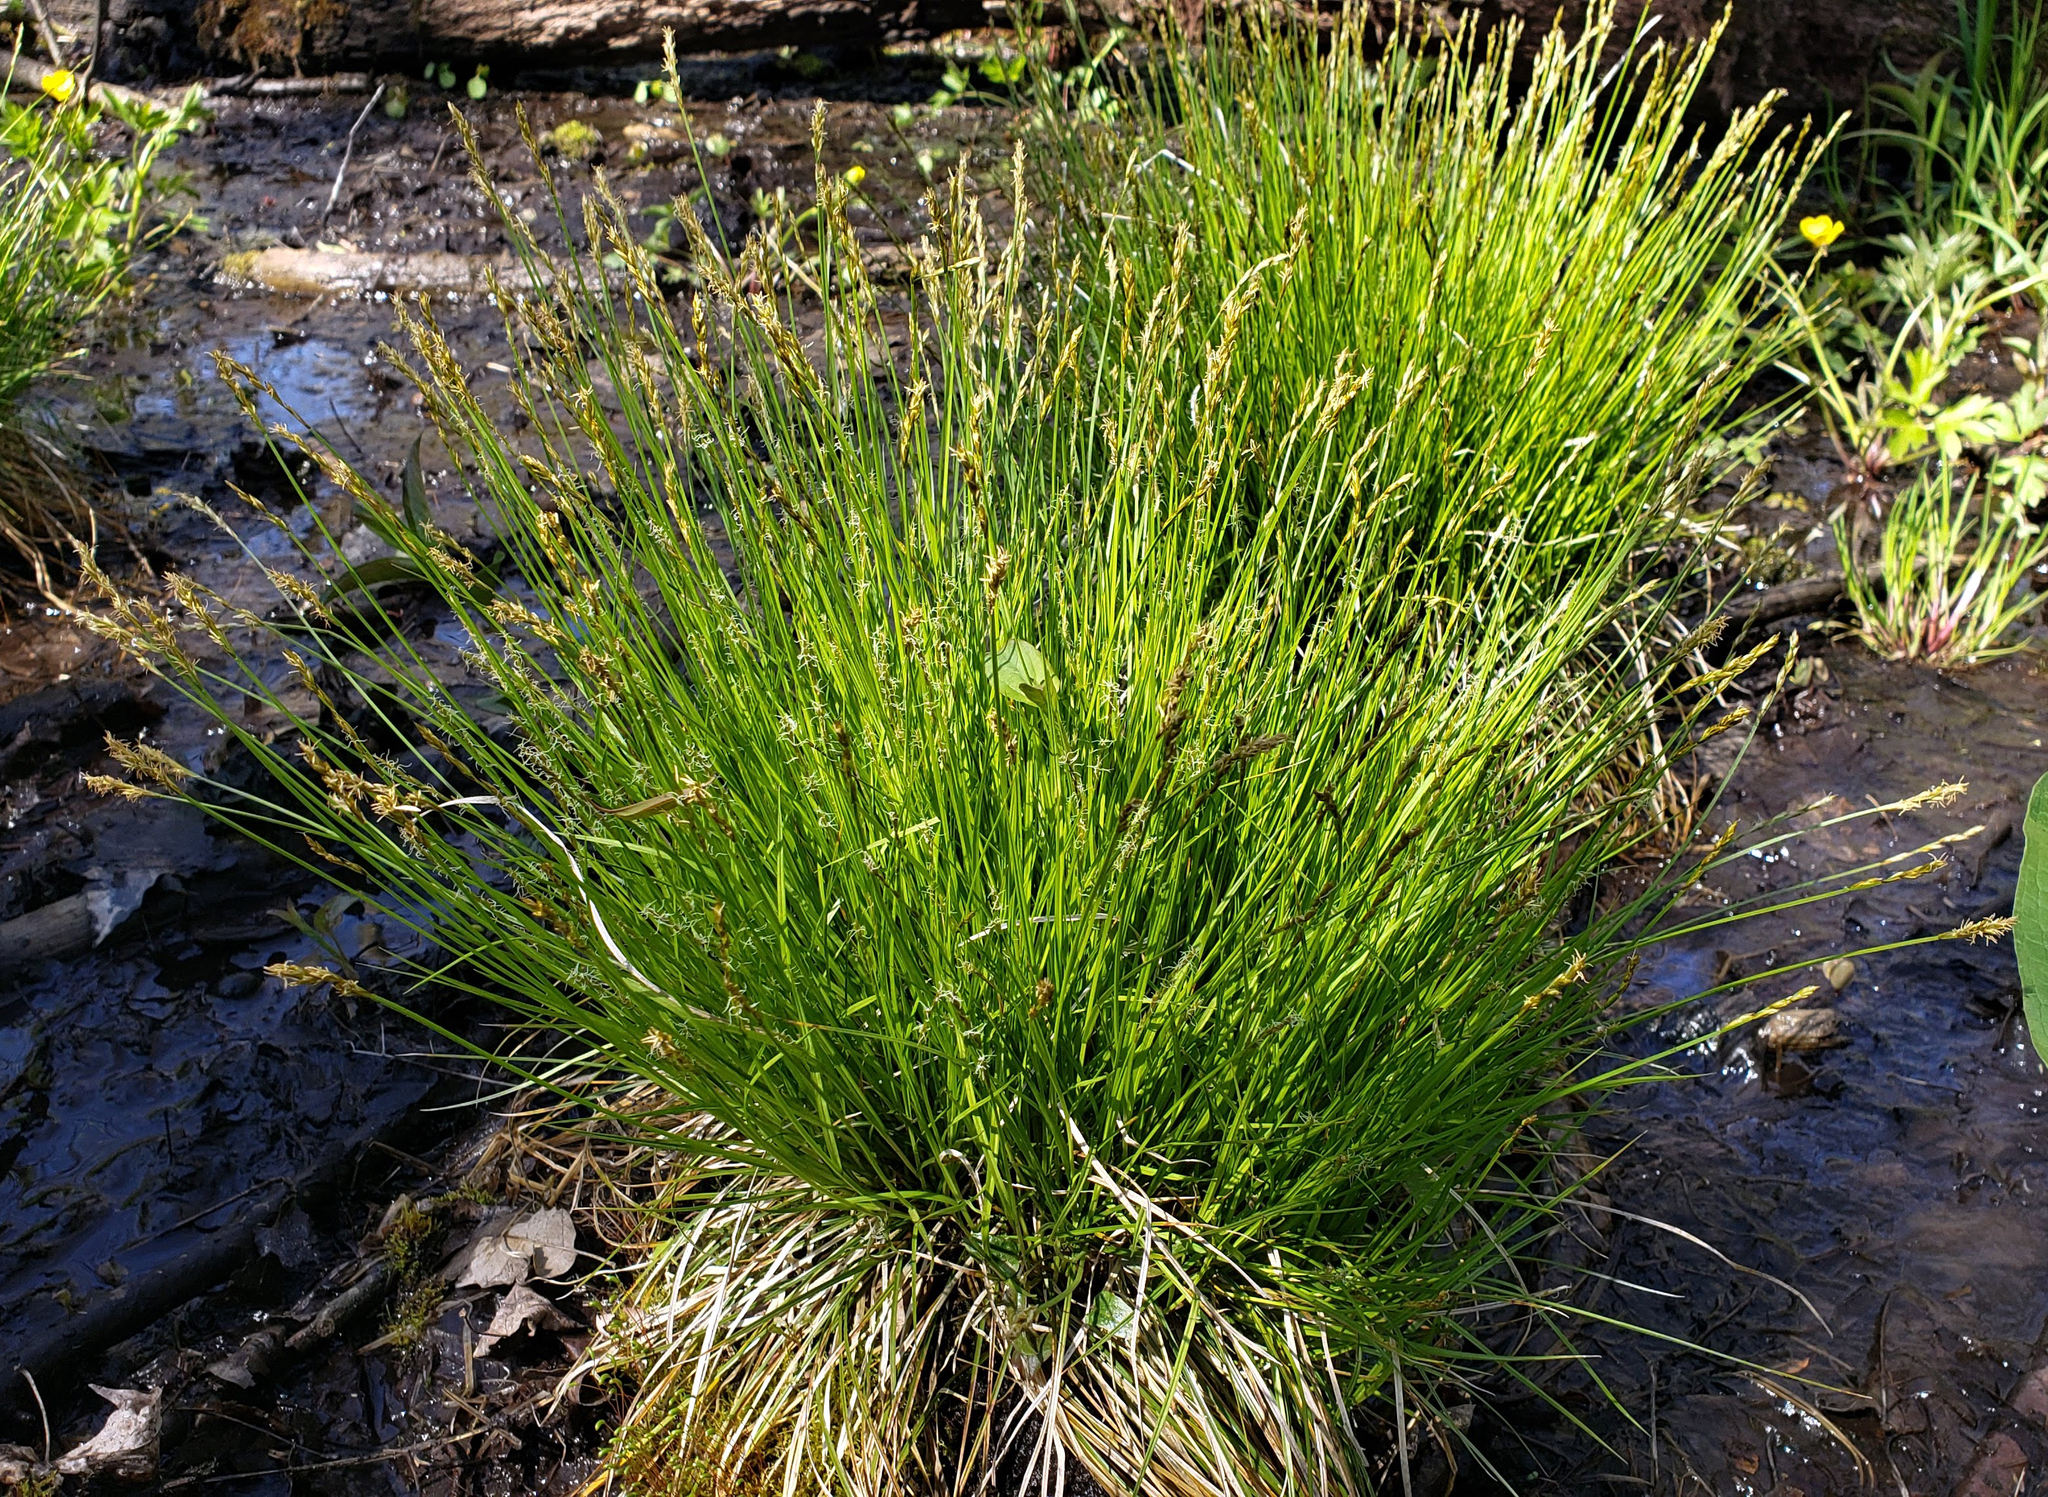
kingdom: Plantae
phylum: Tracheophyta
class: Liliopsida
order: Poales
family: Cyperaceae
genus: Carex
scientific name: Carex bromoides
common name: Brome hummock sedge
